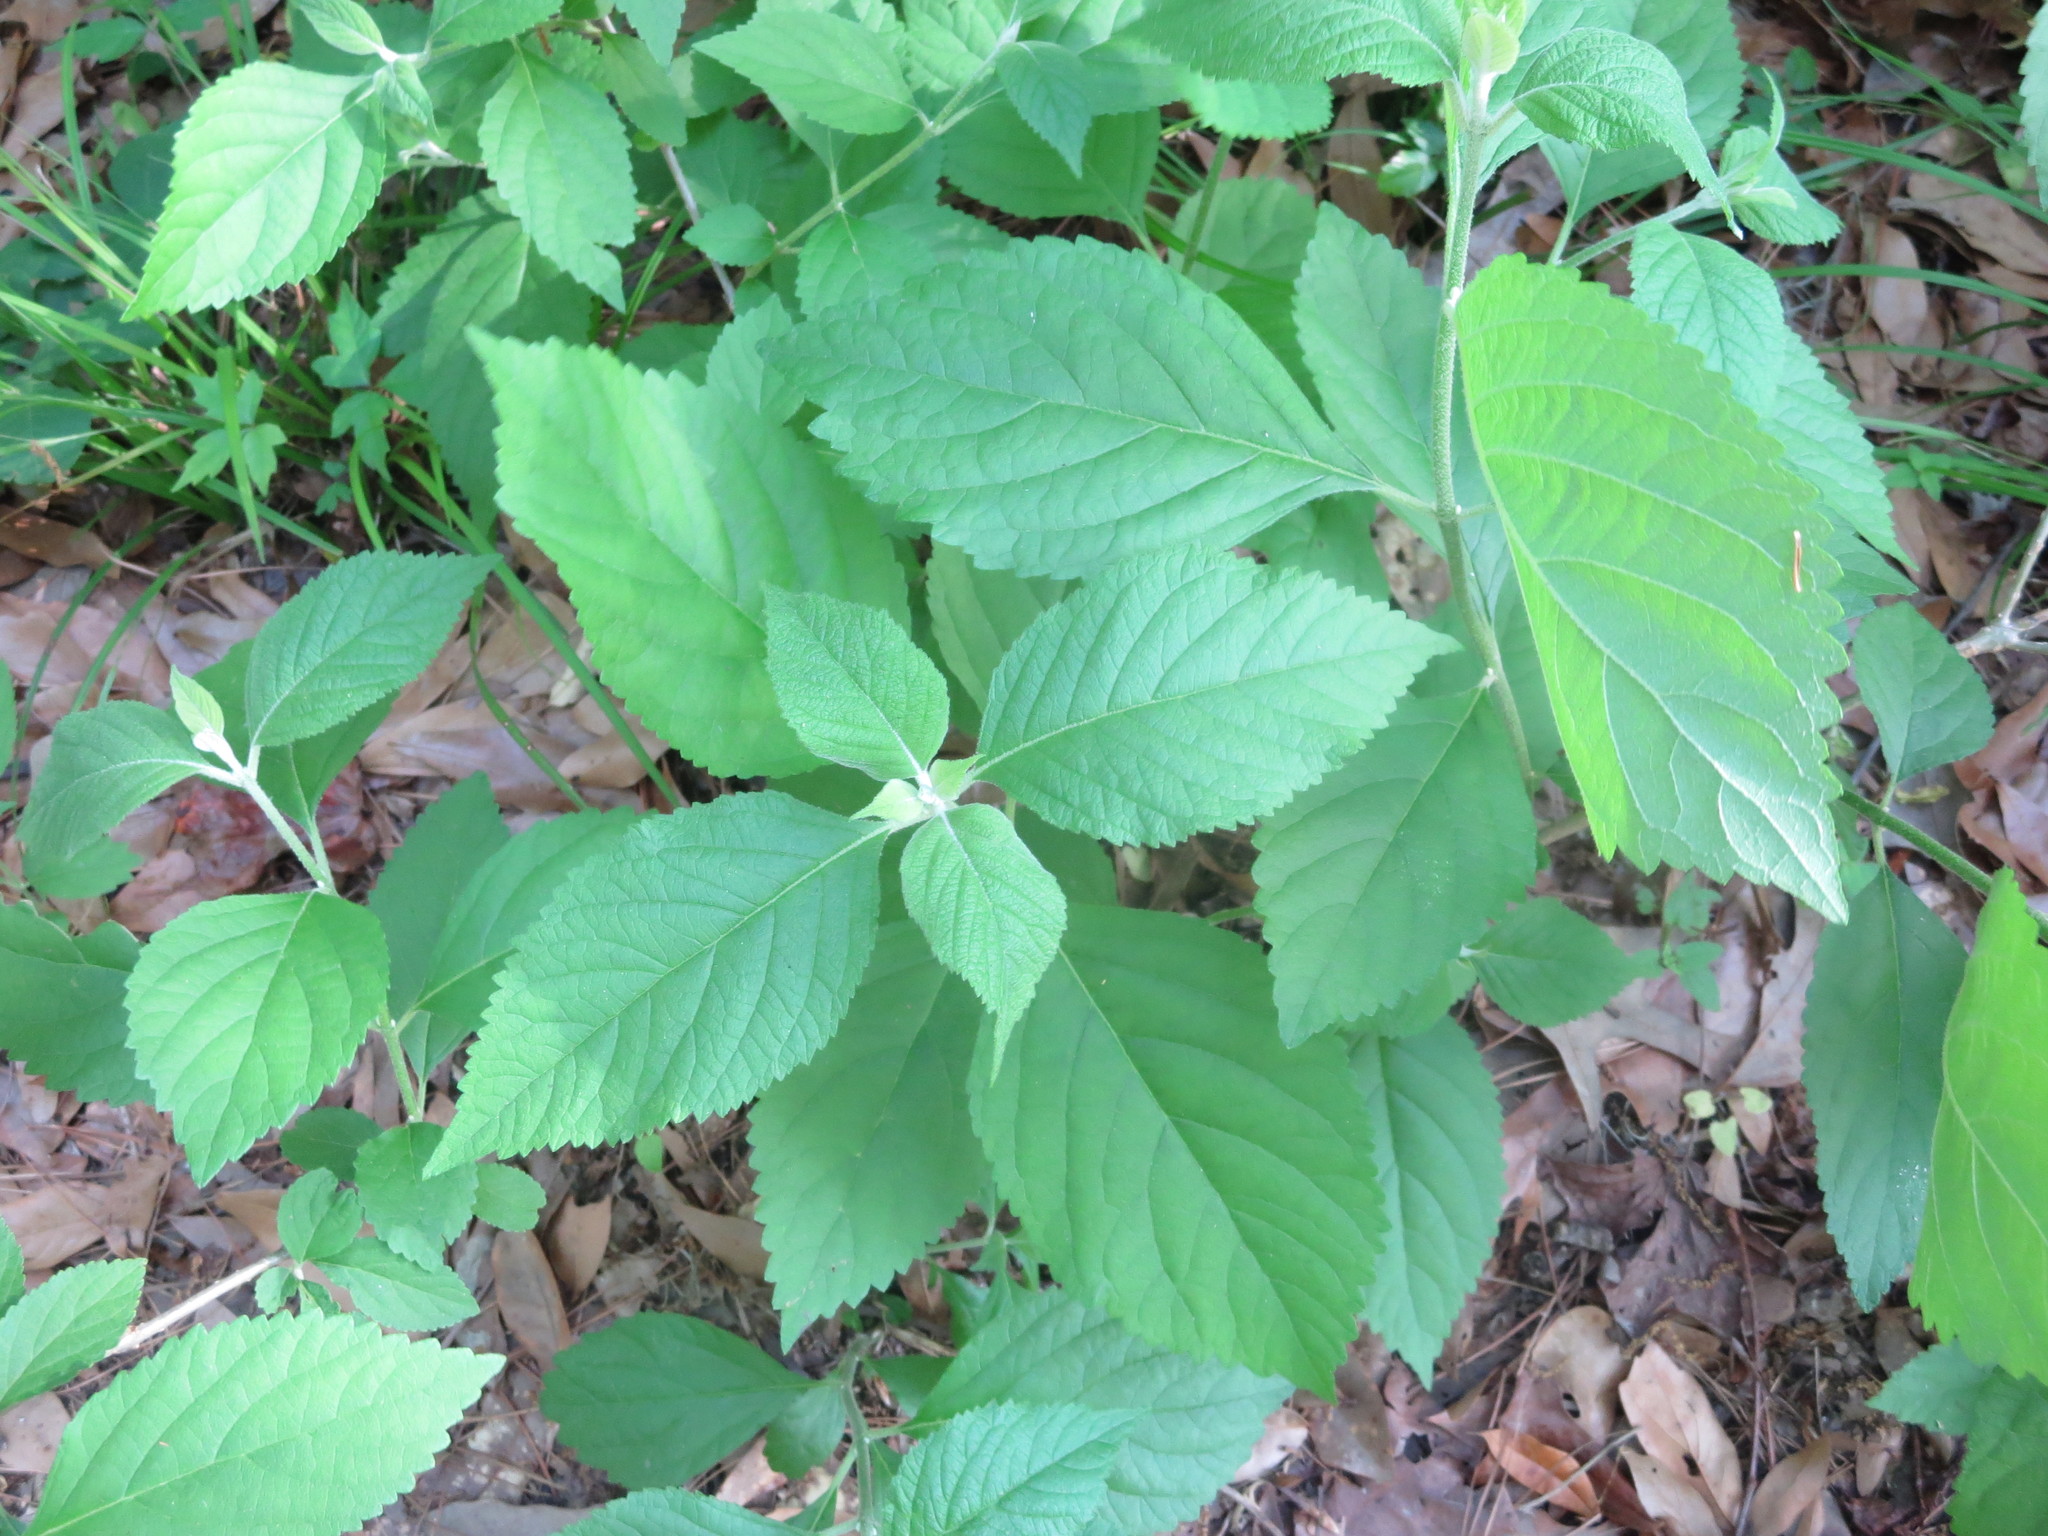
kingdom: Plantae
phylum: Tracheophyta
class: Magnoliopsida
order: Lamiales
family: Lamiaceae
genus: Callicarpa
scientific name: Callicarpa americana
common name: American beautyberry
